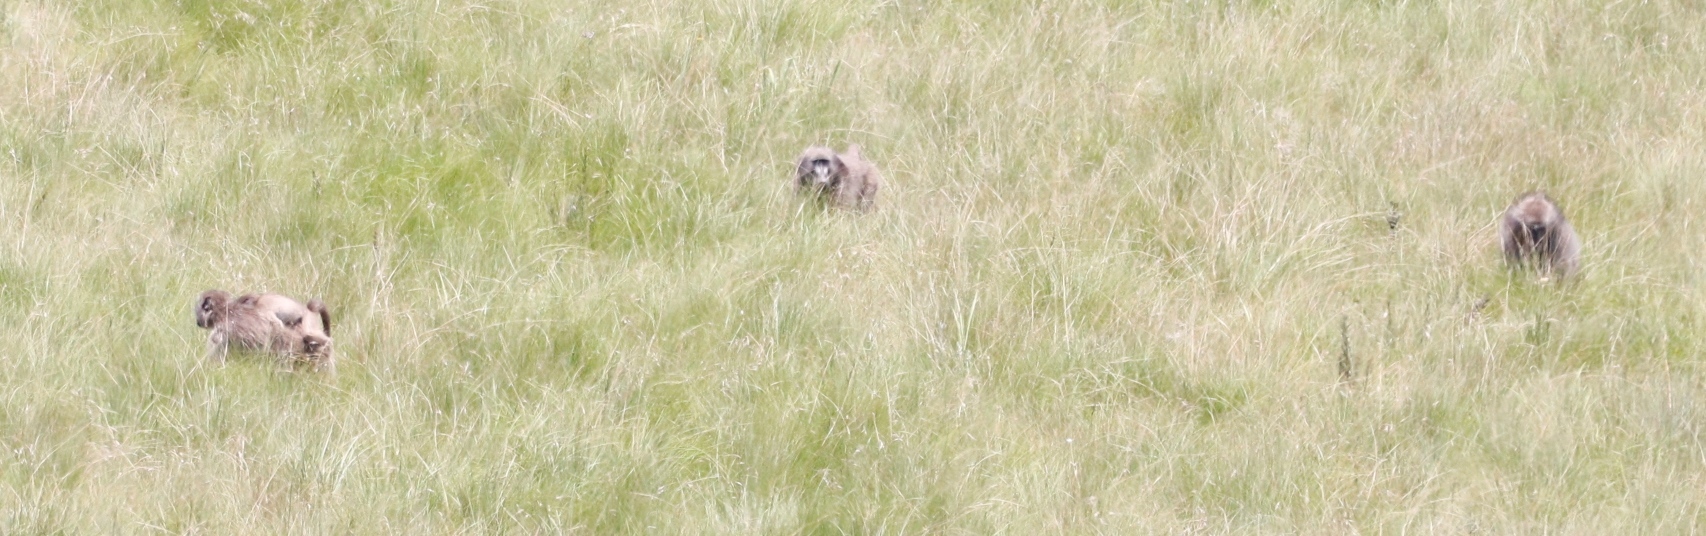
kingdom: Animalia
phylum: Chordata
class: Mammalia
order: Primates
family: Cercopithecidae
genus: Papio
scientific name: Papio ursinus
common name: Chacma baboon
